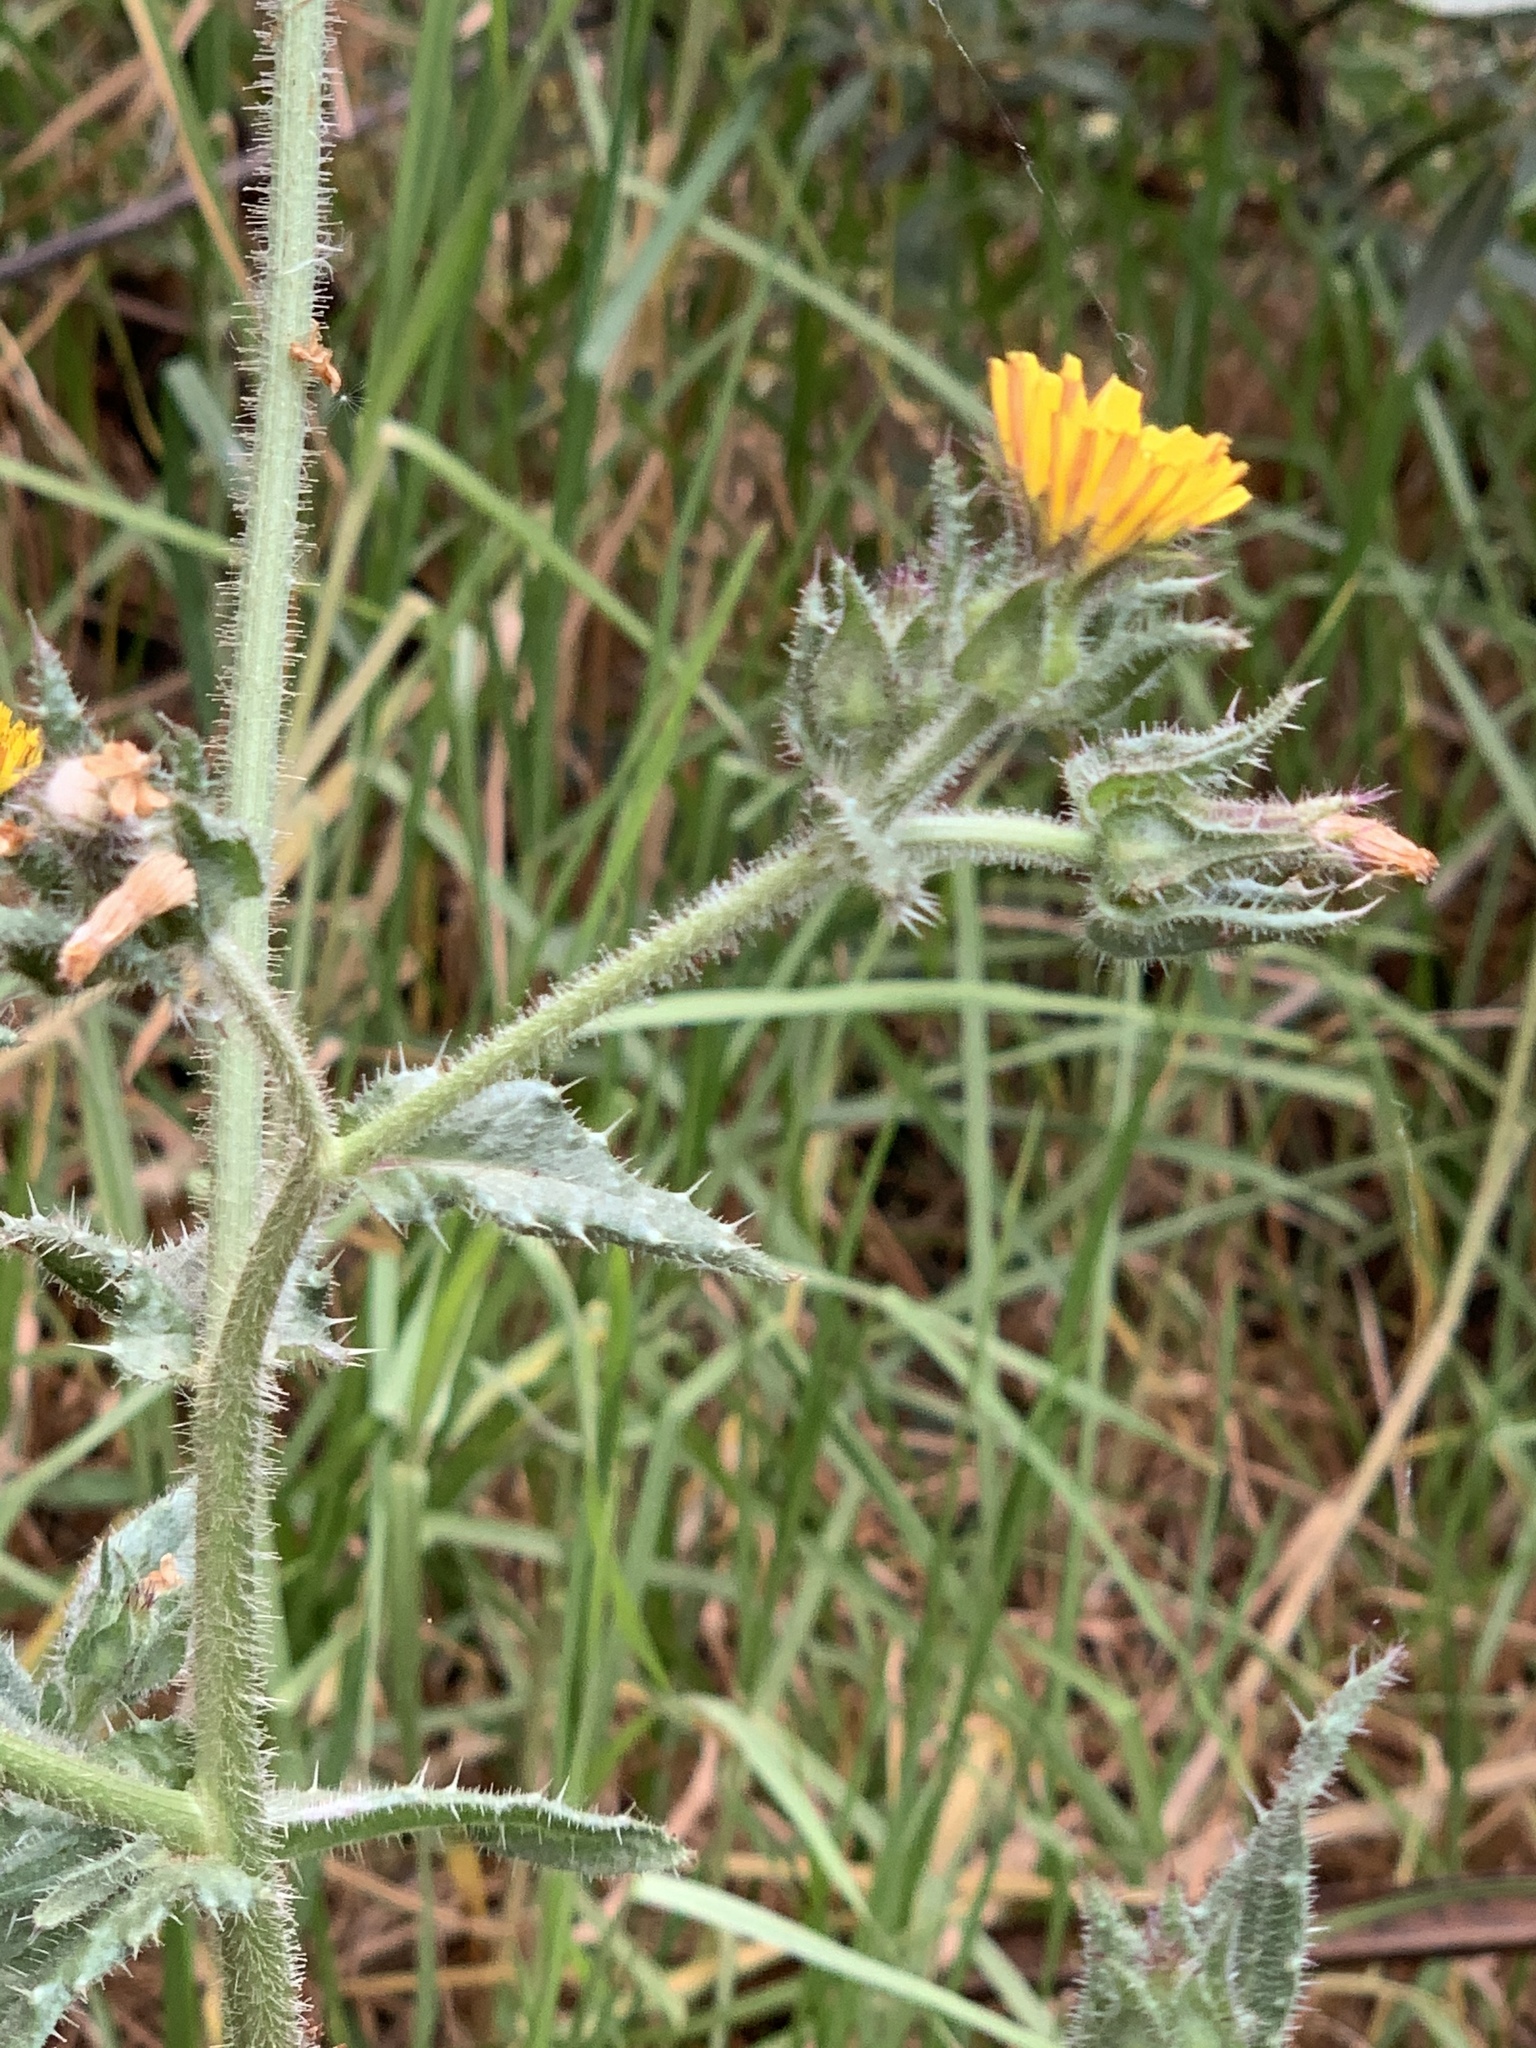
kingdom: Plantae
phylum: Tracheophyta
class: Magnoliopsida
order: Asterales
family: Asteraceae
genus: Helminthotheca
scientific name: Helminthotheca echioides
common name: Ox-tongue
